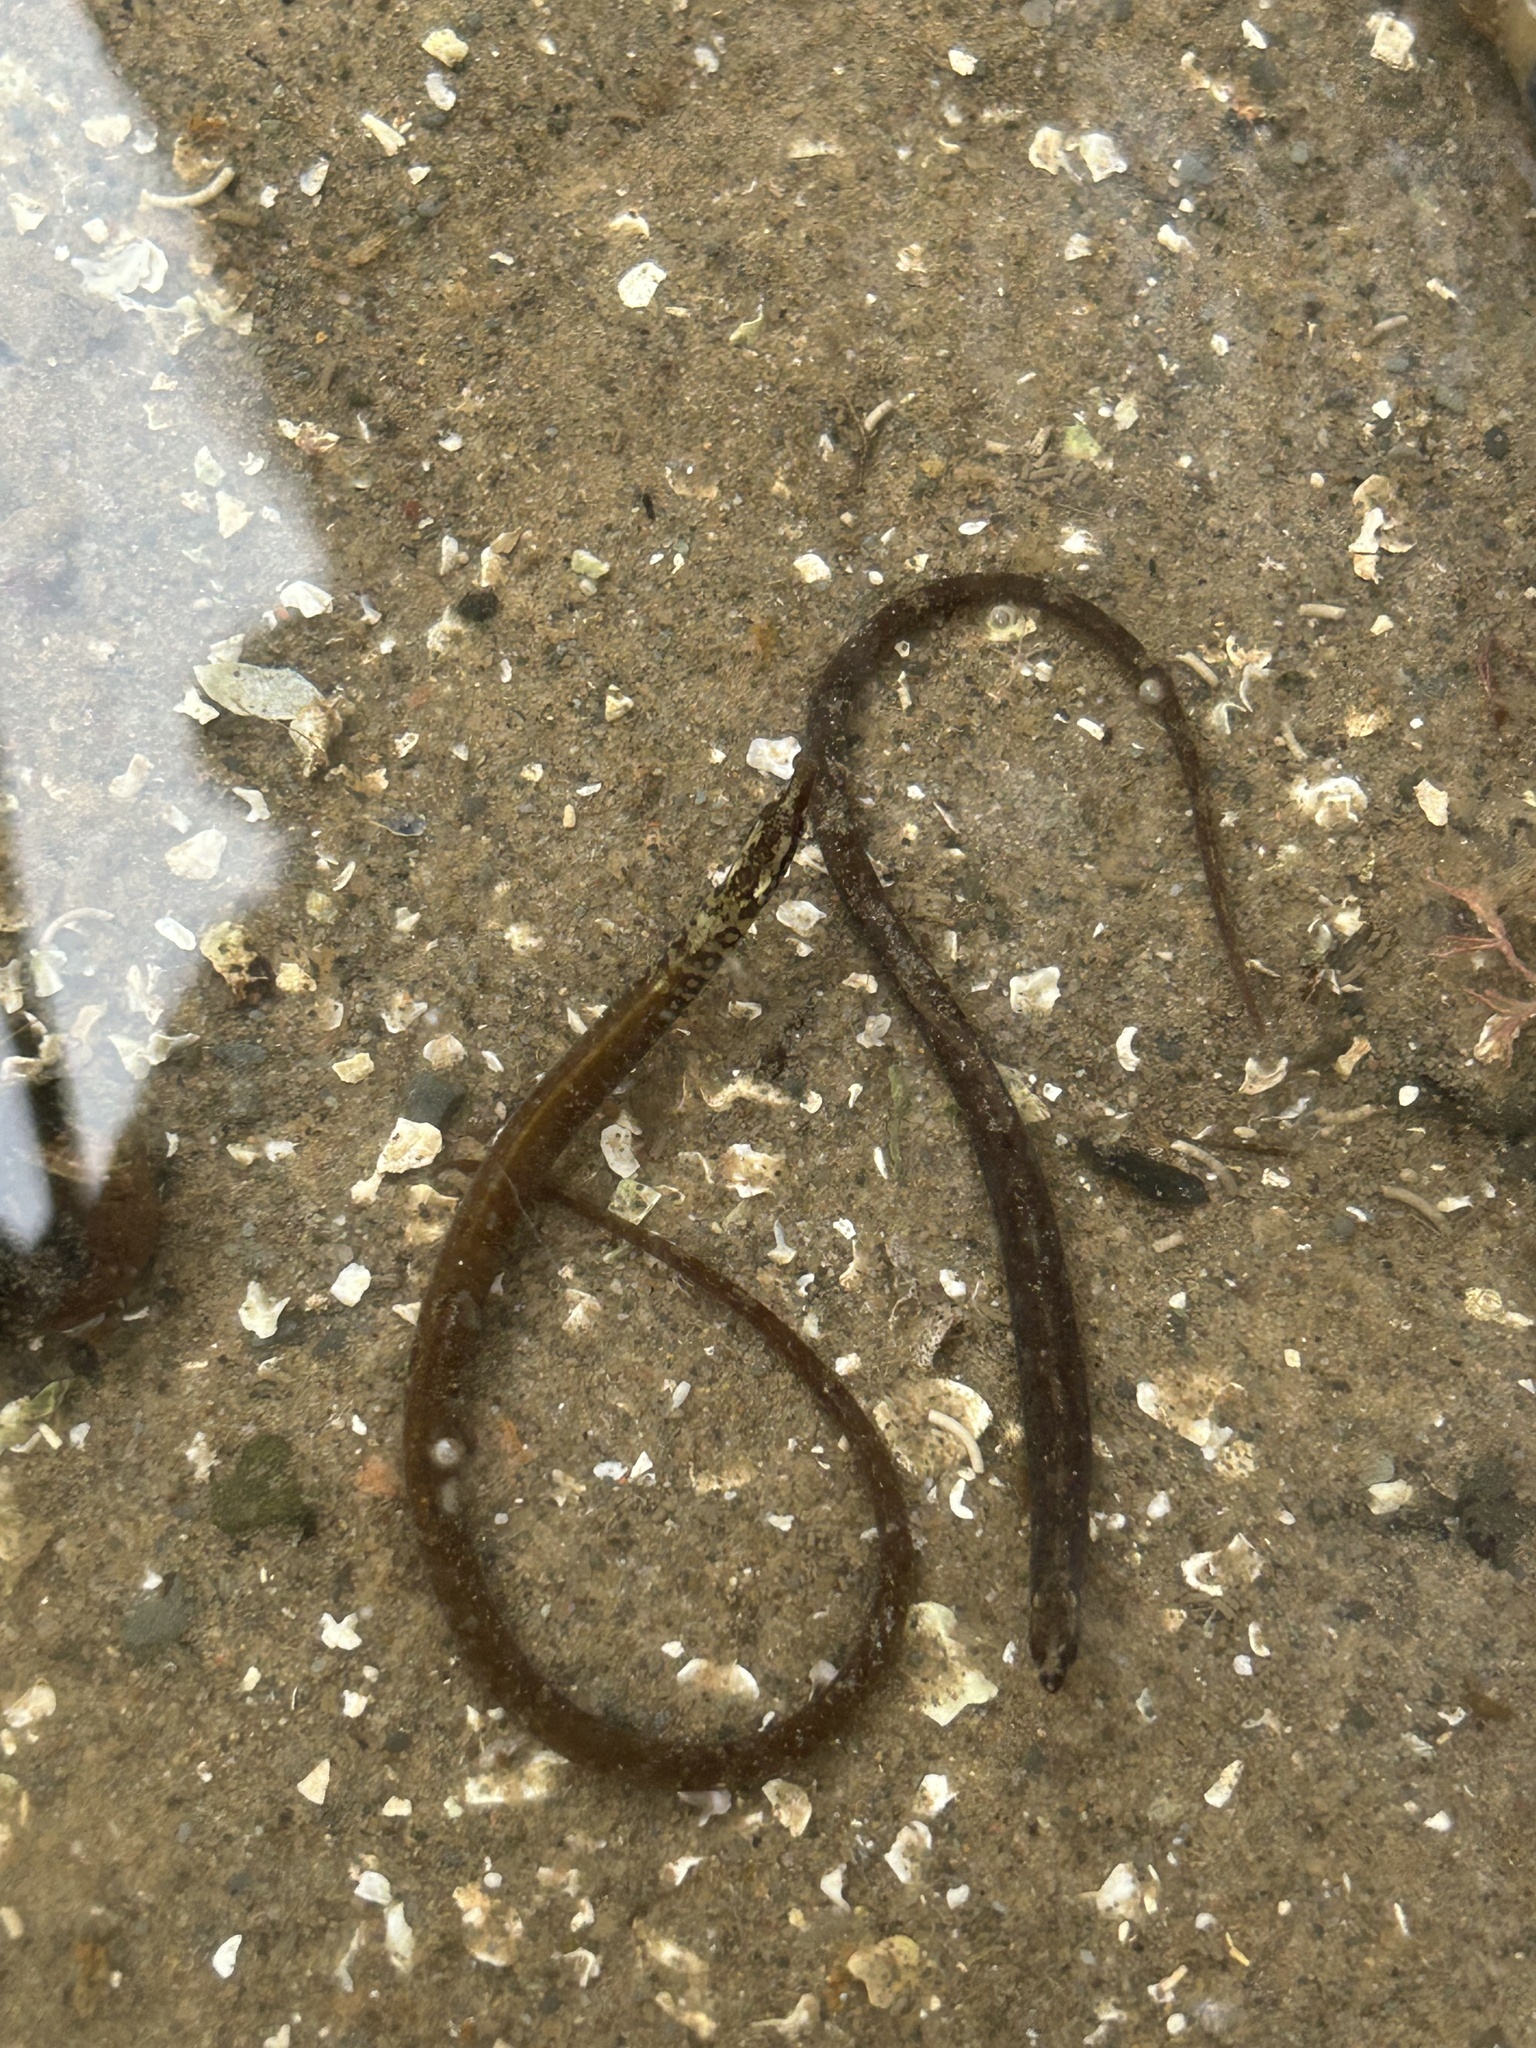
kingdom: Animalia
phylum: Chordata
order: Syngnathiformes
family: Syngnathidae
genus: Nerophis
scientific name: Nerophis lumbriciformis
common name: Worm pipefish
